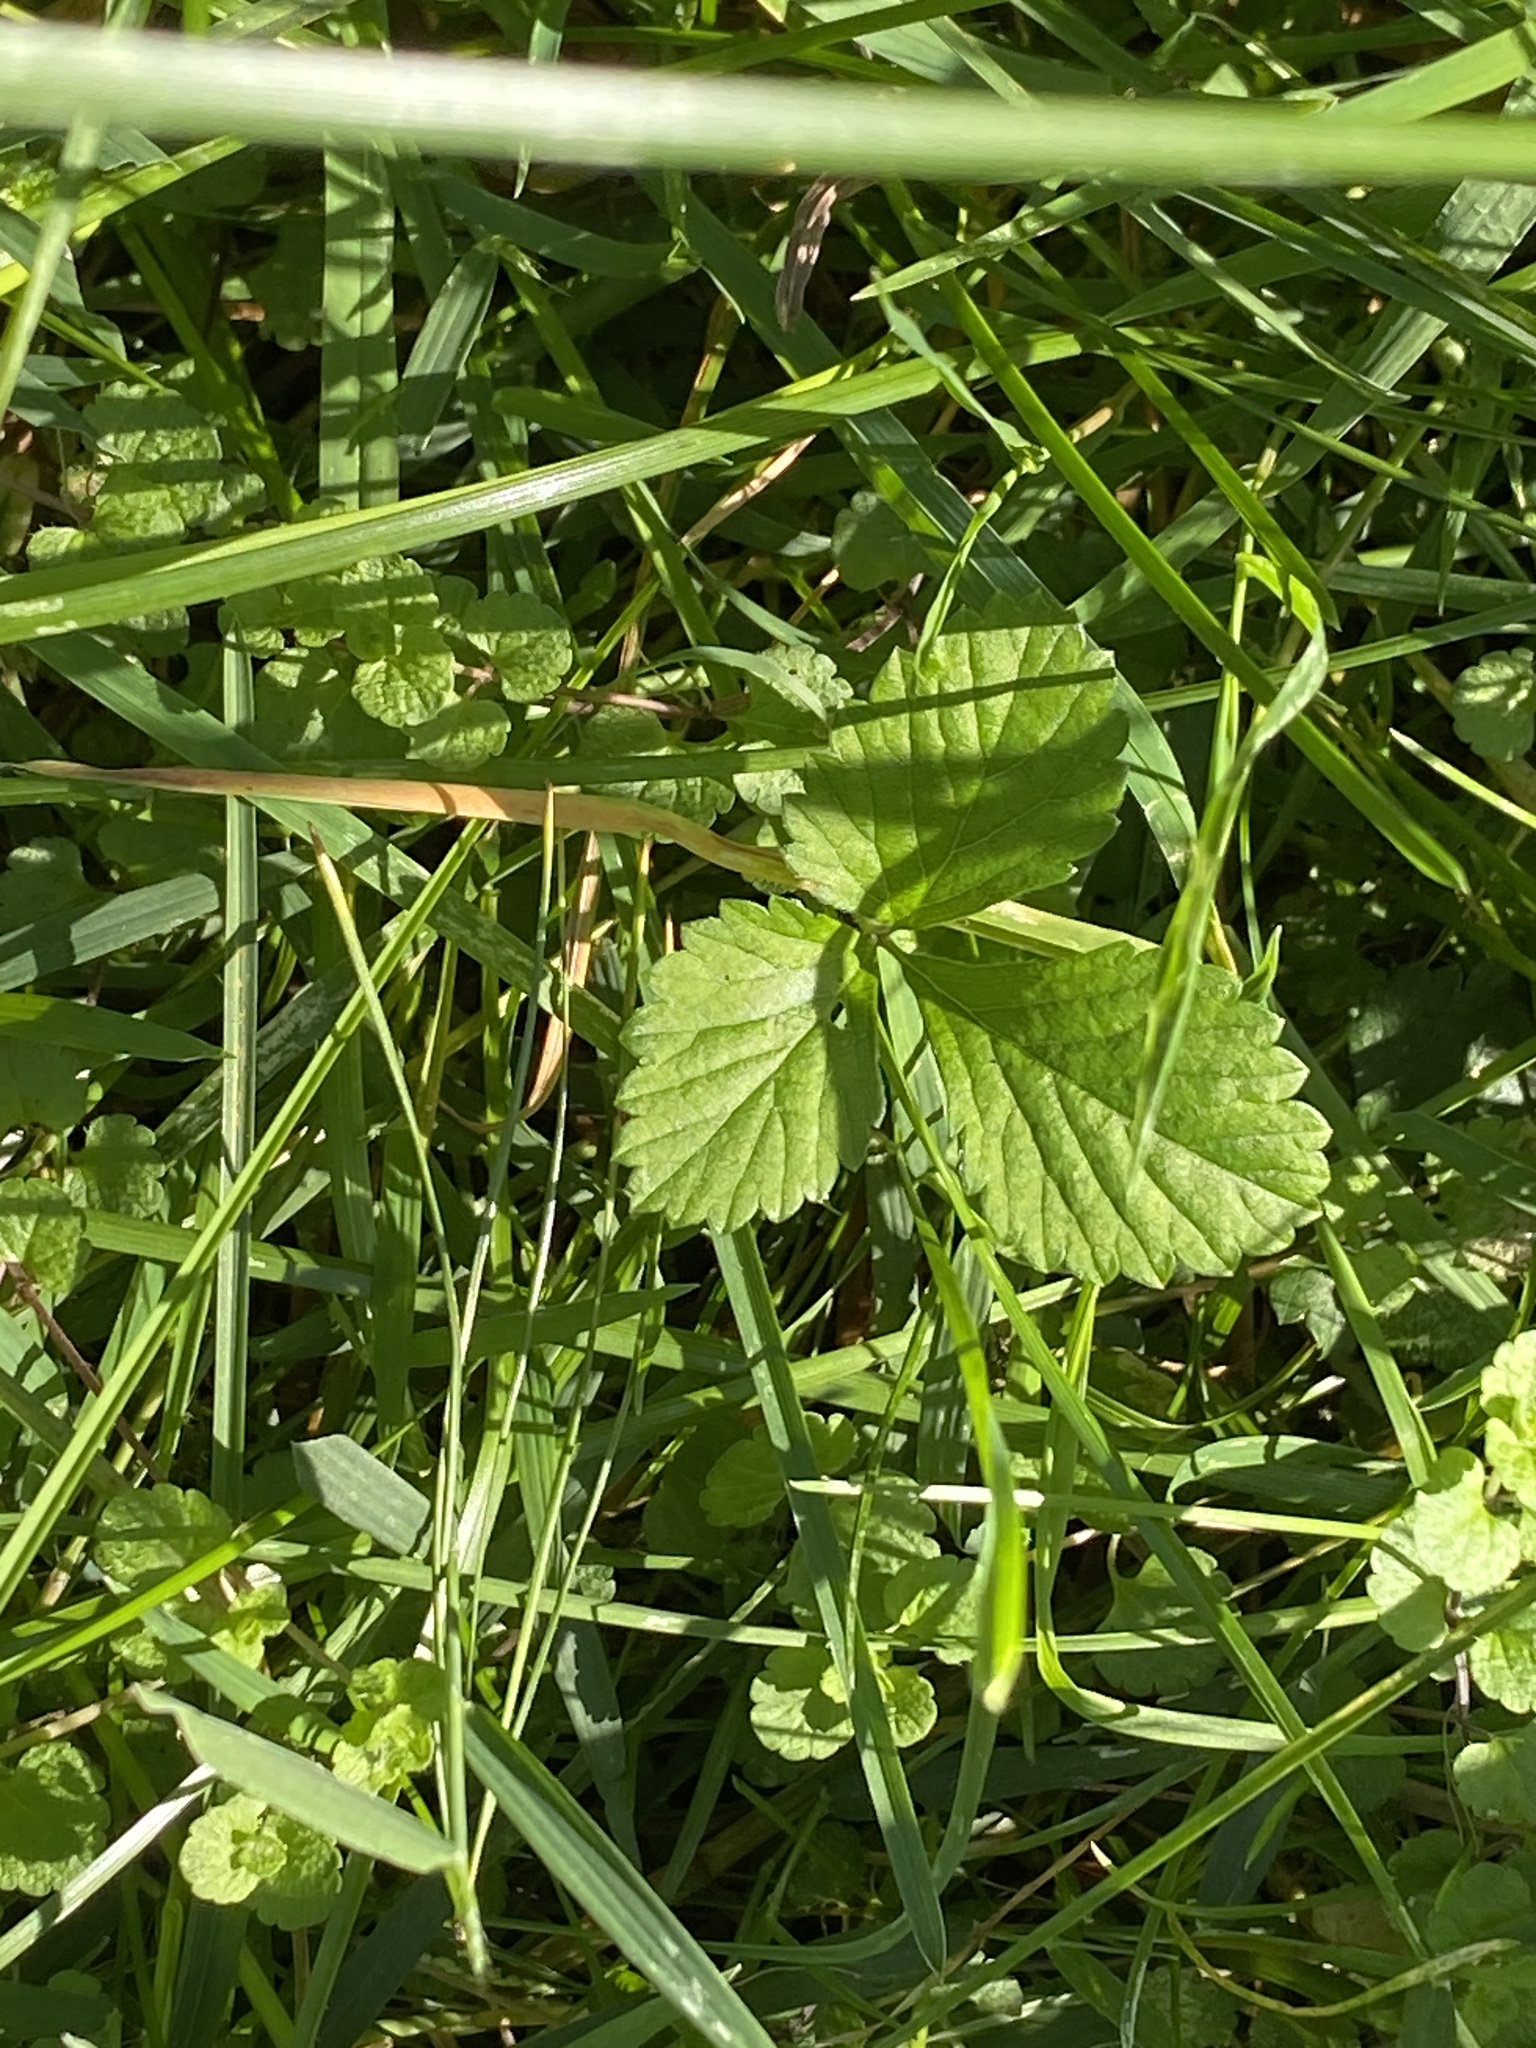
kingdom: Plantae
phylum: Tracheophyta
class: Magnoliopsida
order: Rosales
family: Rosaceae
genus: Potentilla
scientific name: Potentilla indica
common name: Yellow-flowered strawberry
